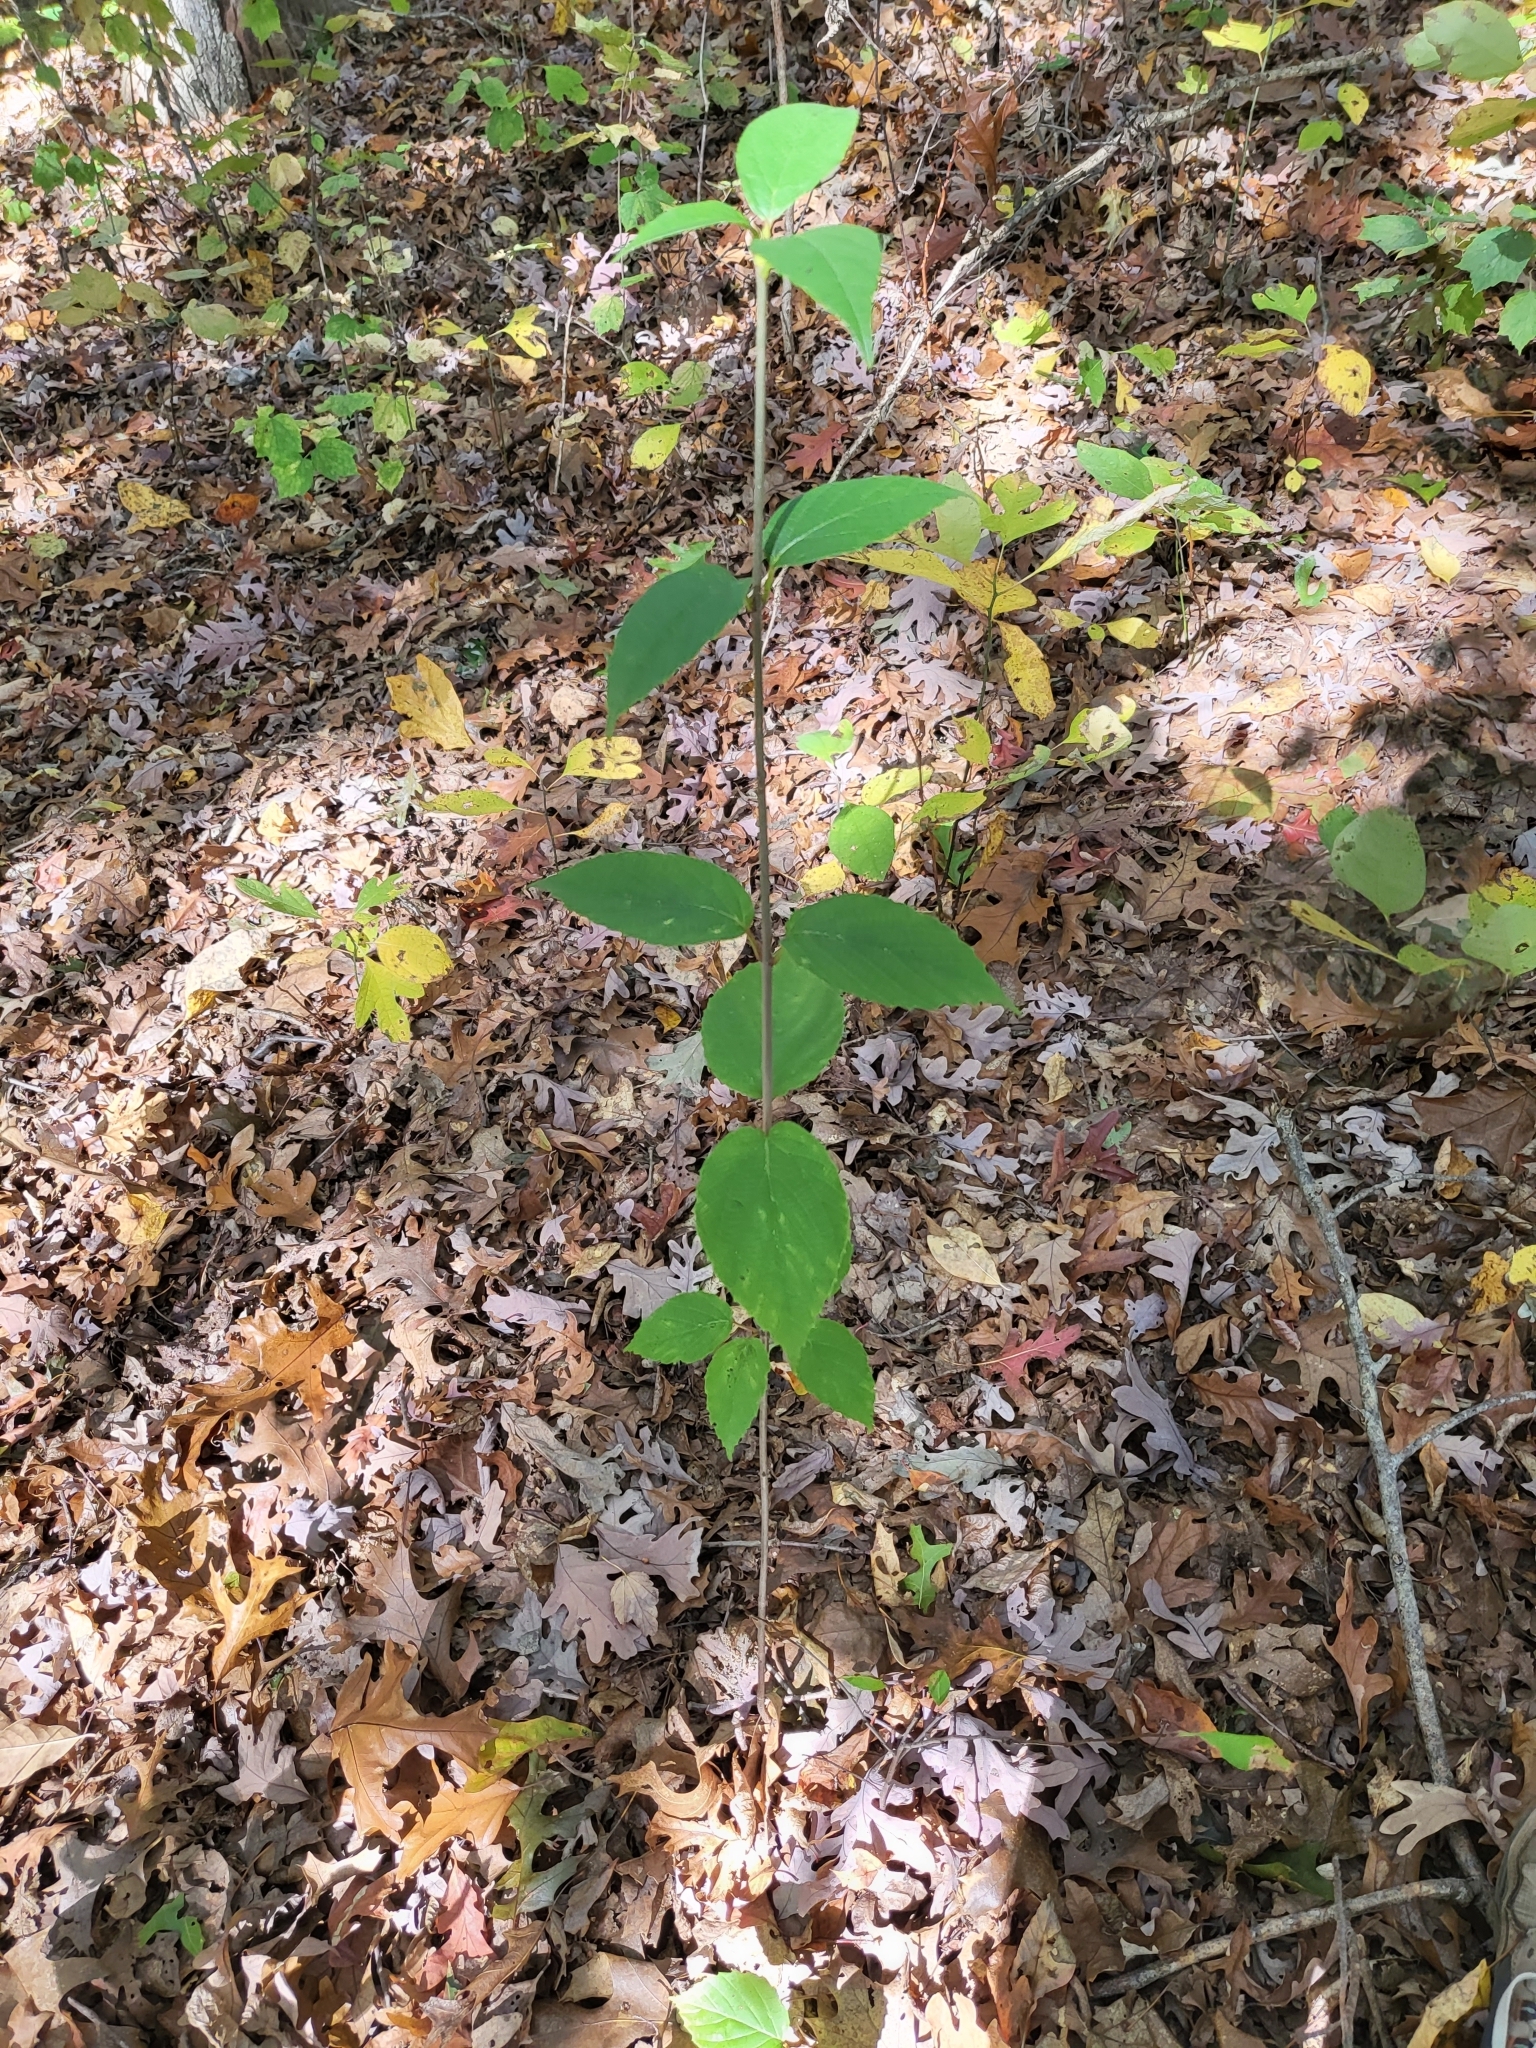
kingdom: Plantae
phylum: Tracheophyta
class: Magnoliopsida
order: Dipsacales
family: Viburnaceae
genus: Viburnum
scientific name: Viburnum setigerum
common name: Tea viburnum
